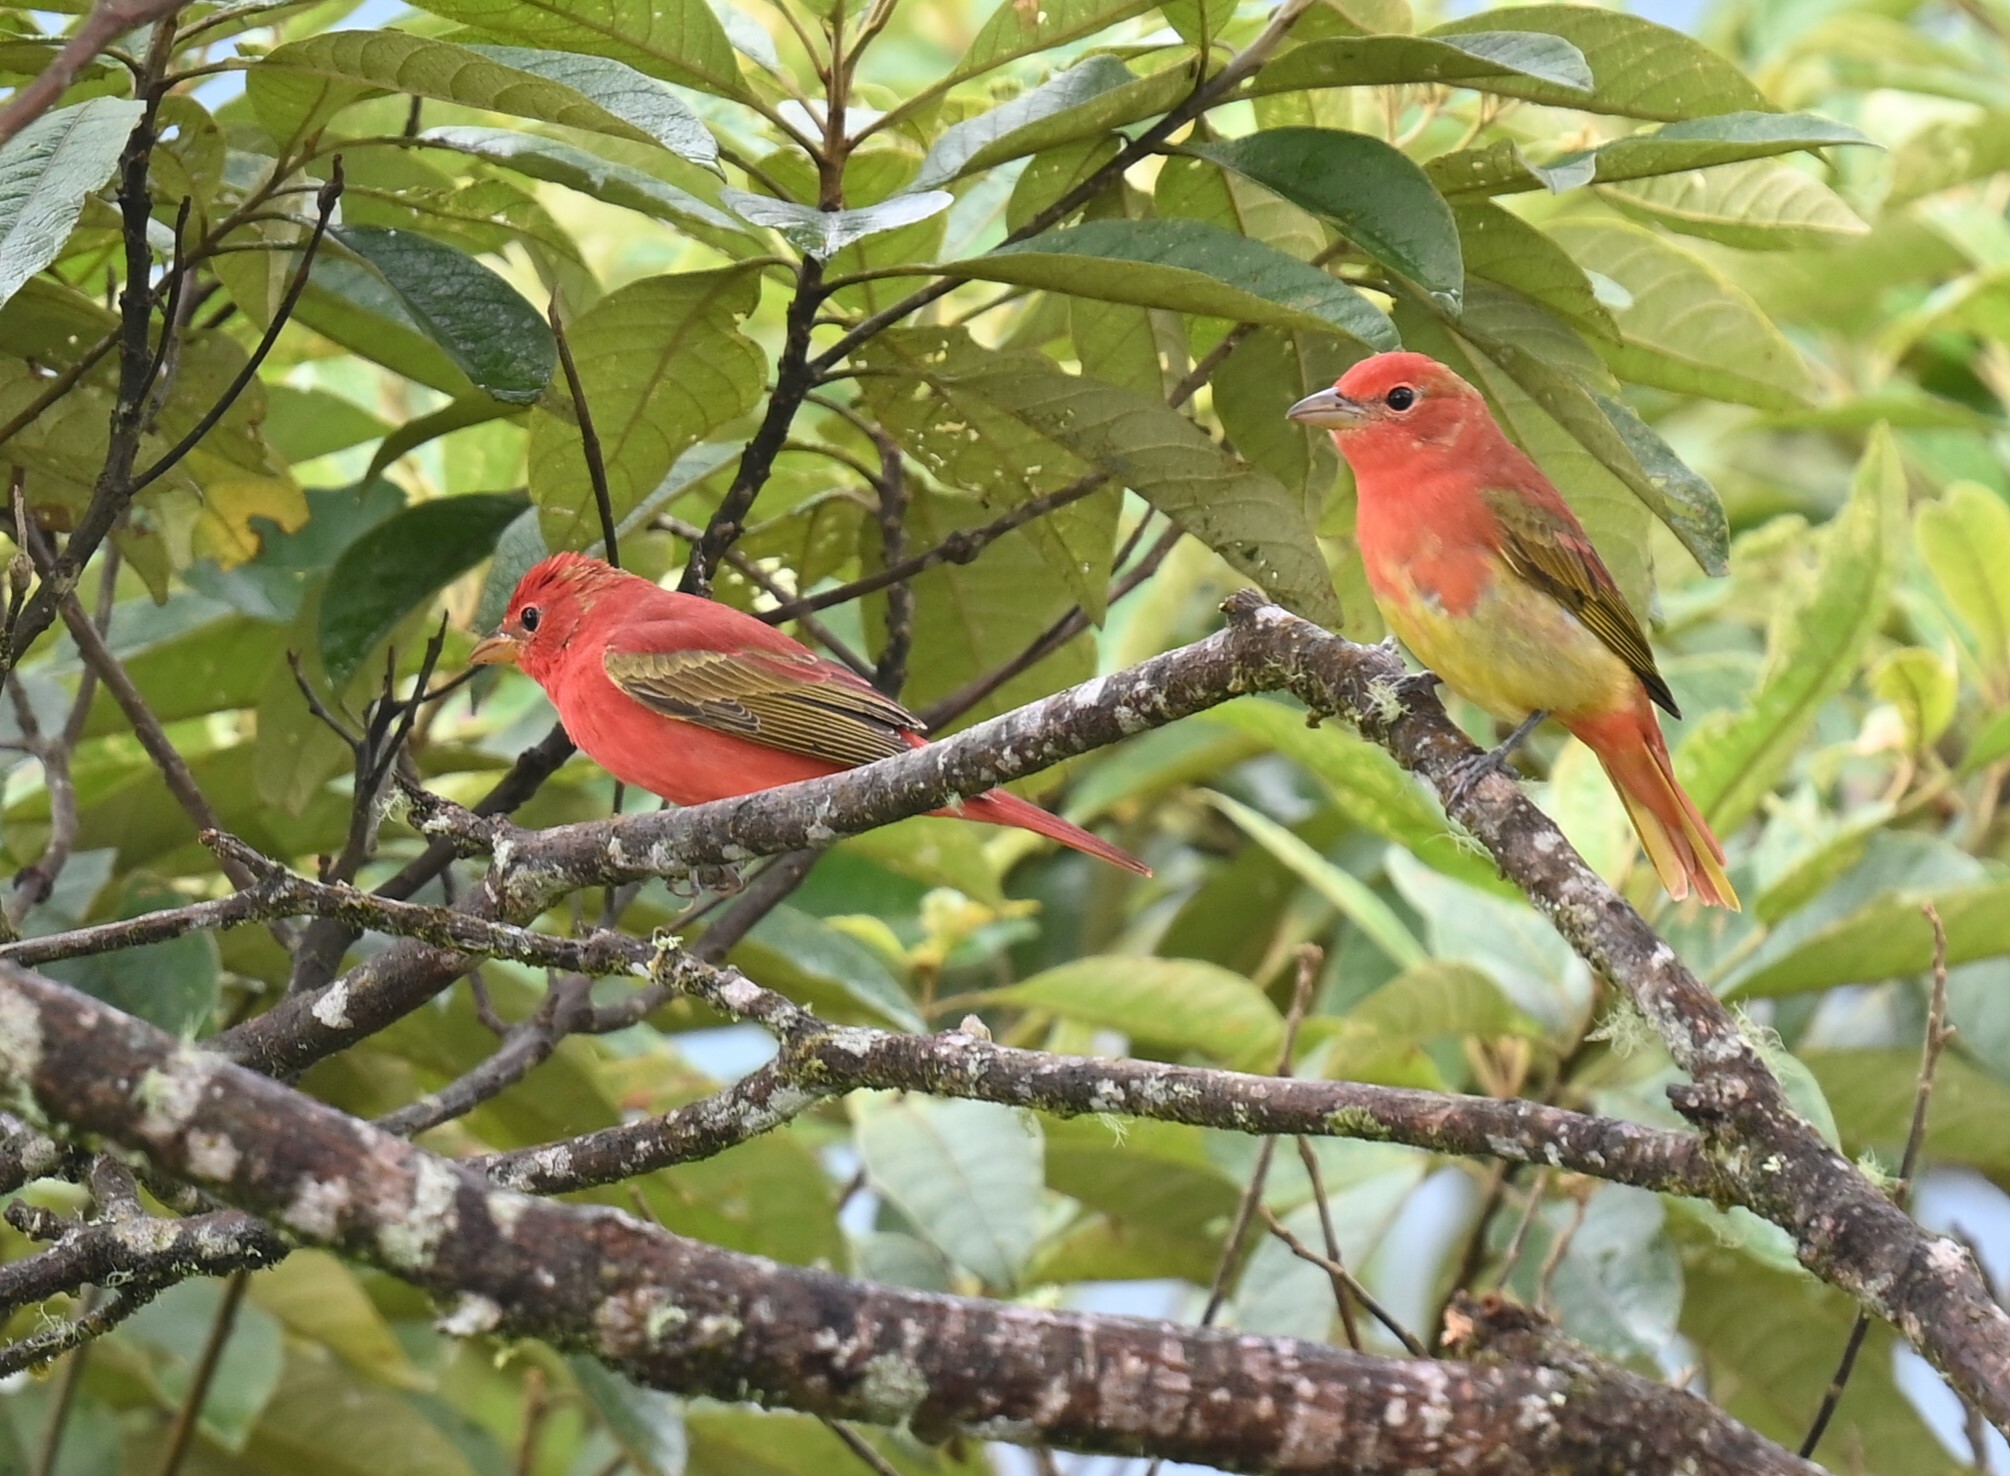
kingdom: Animalia
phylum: Chordata
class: Aves
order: Passeriformes
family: Cardinalidae
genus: Piranga
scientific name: Piranga rubra
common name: Summer tanager
